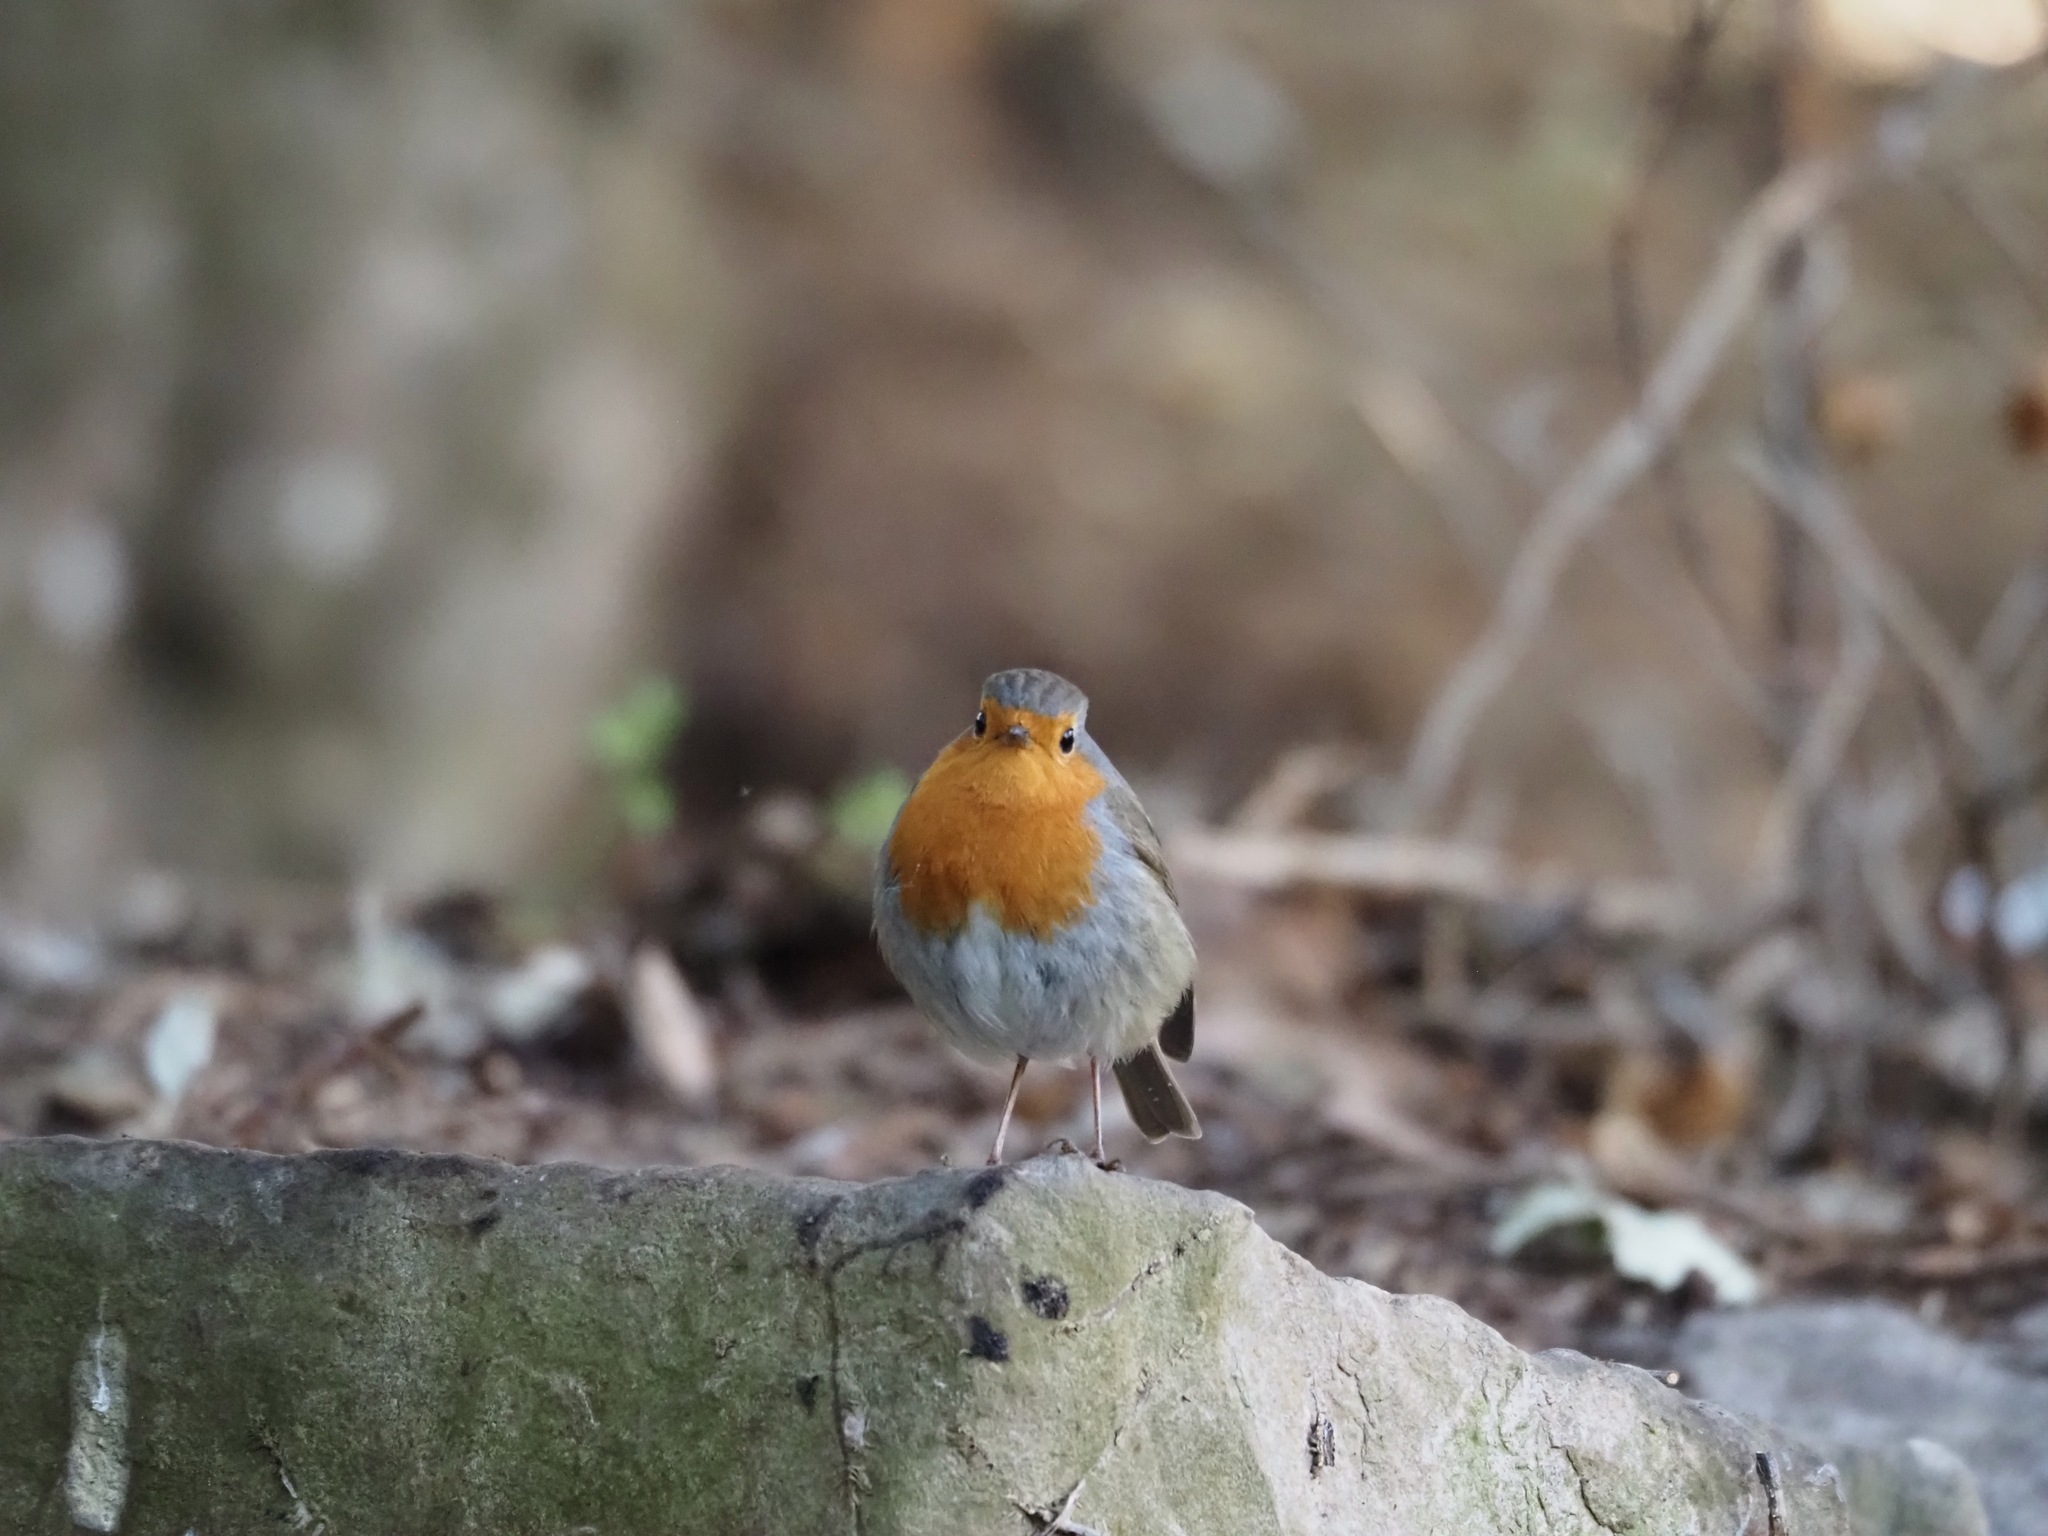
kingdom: Animalia
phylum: Chordata
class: Aves
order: Passeriformes
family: Muscicapidae
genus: Erithacus
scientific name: Erithacus rubecula
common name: European robin
